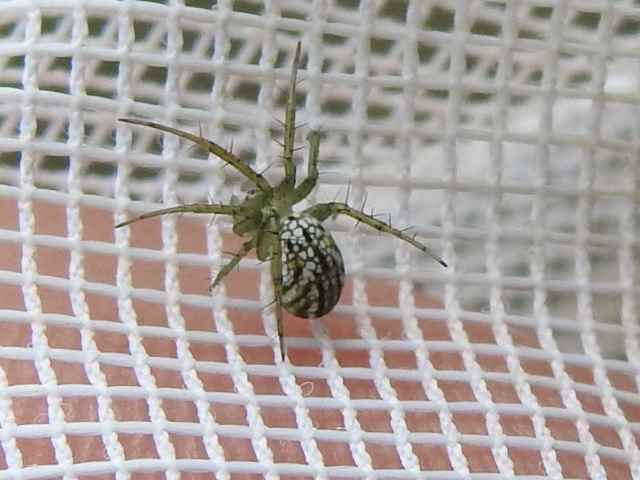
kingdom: Animalia
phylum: Arthropoda
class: Arachnida
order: Araneae
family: Araneidae
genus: Mangora
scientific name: Mangora gibberosa
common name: Lined orbweaver
